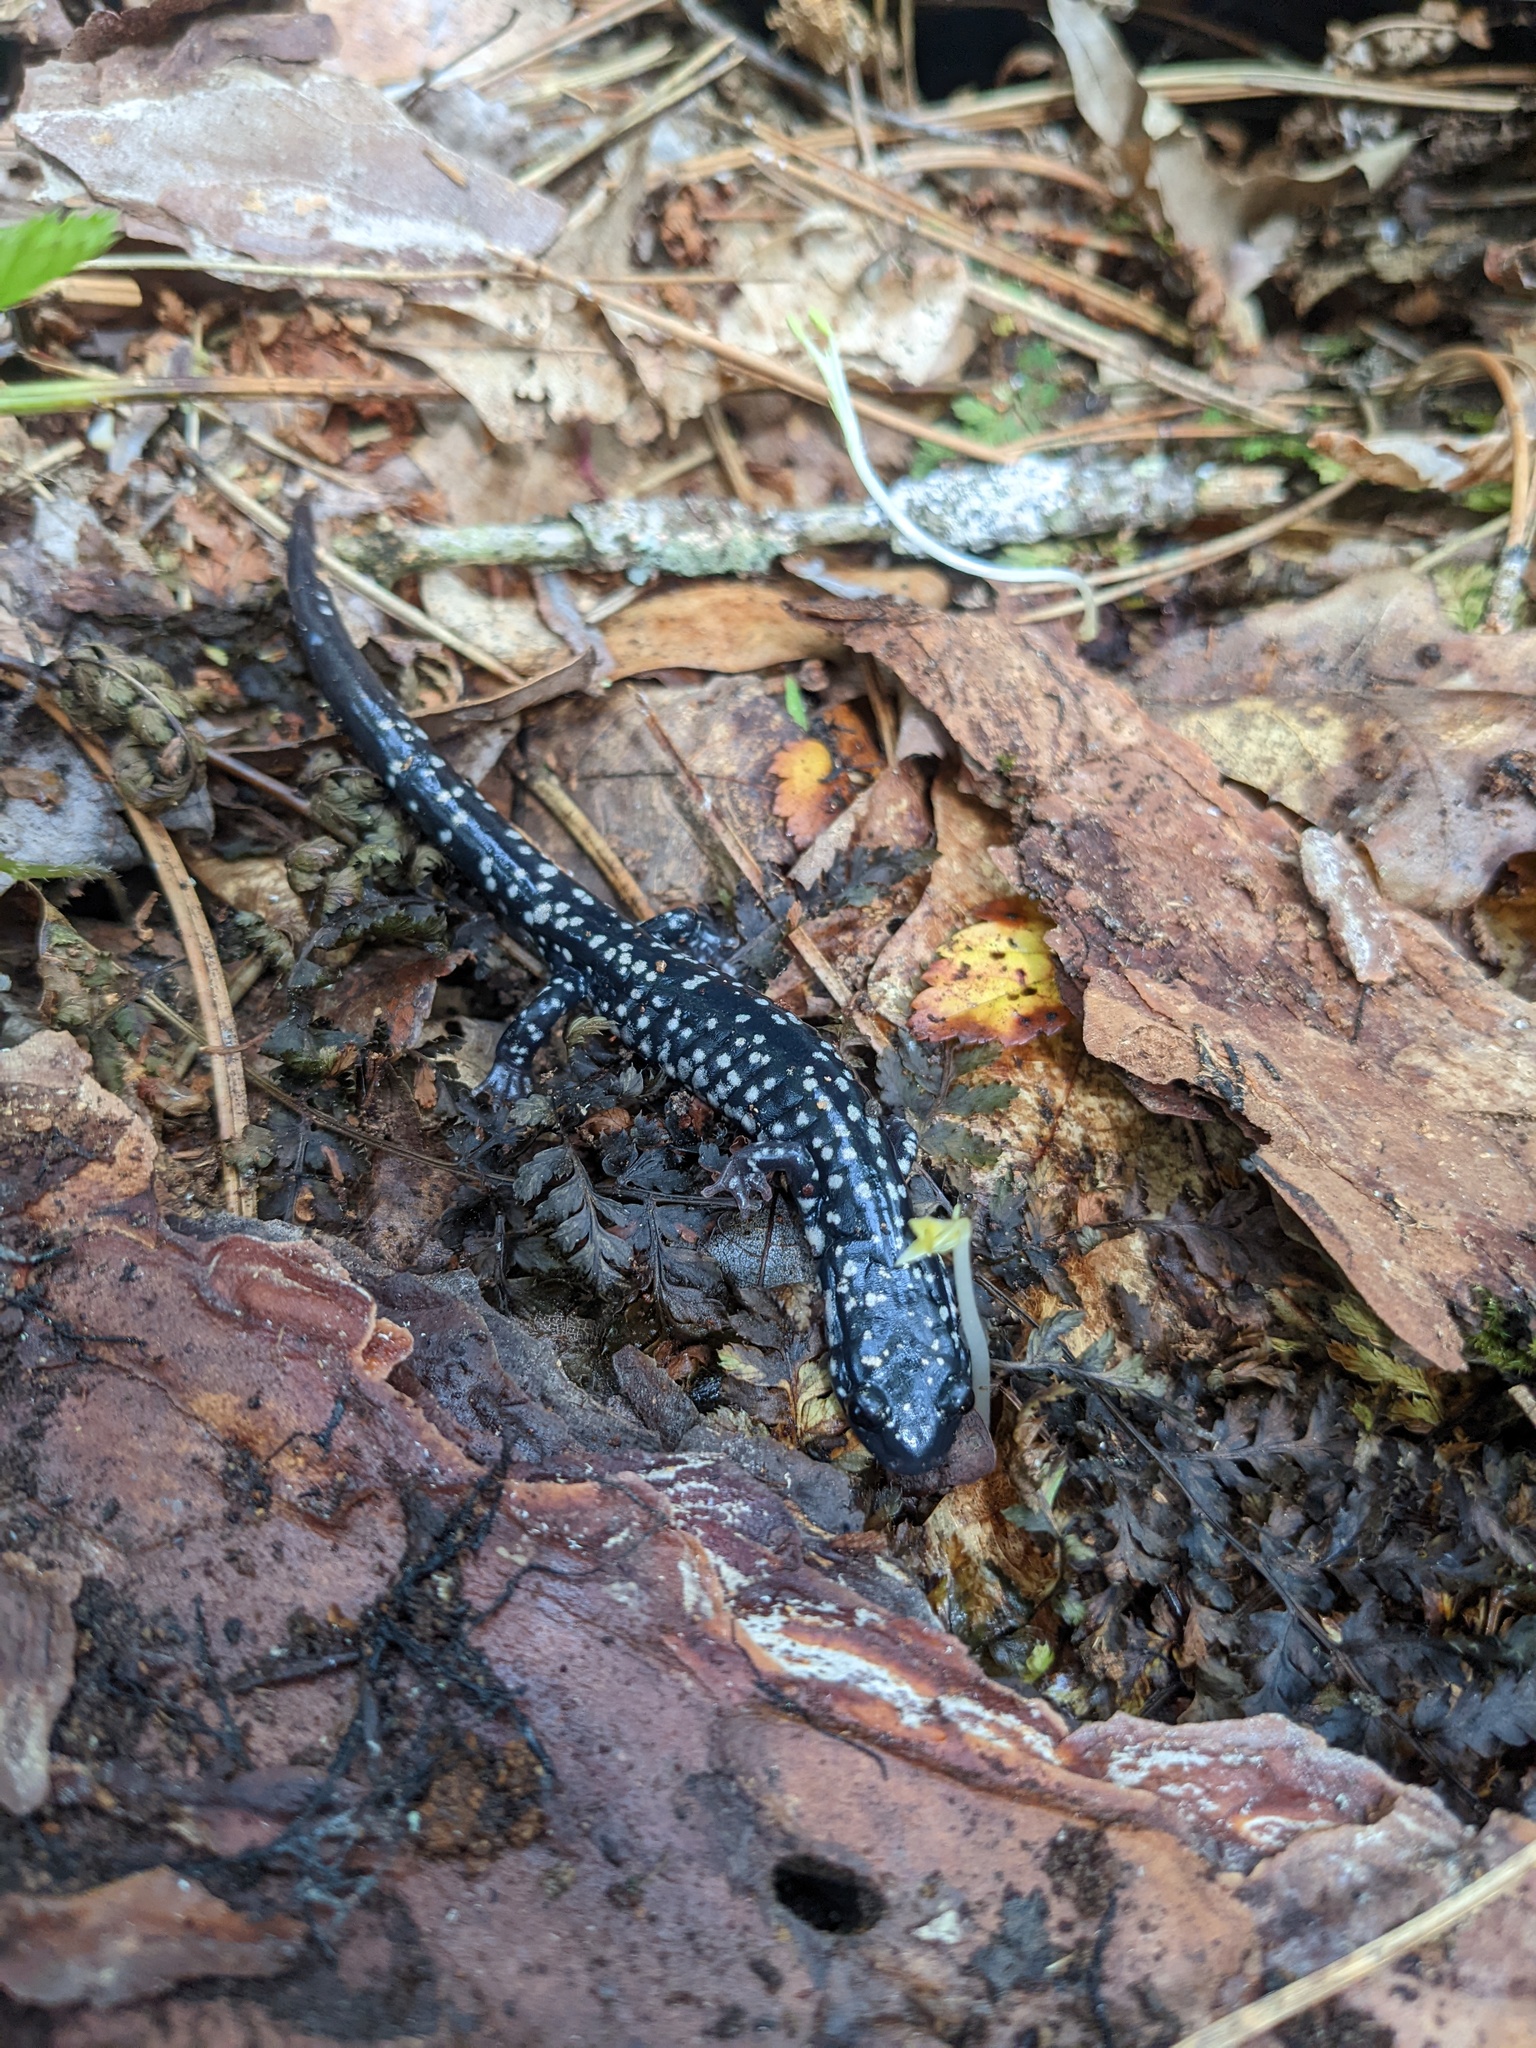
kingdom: Animalia
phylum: Chordata
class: Amphibia
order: Caudata
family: Plethodontidae
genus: Plethodon
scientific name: Plethodon glutinosus
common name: Northern slimy salamander
